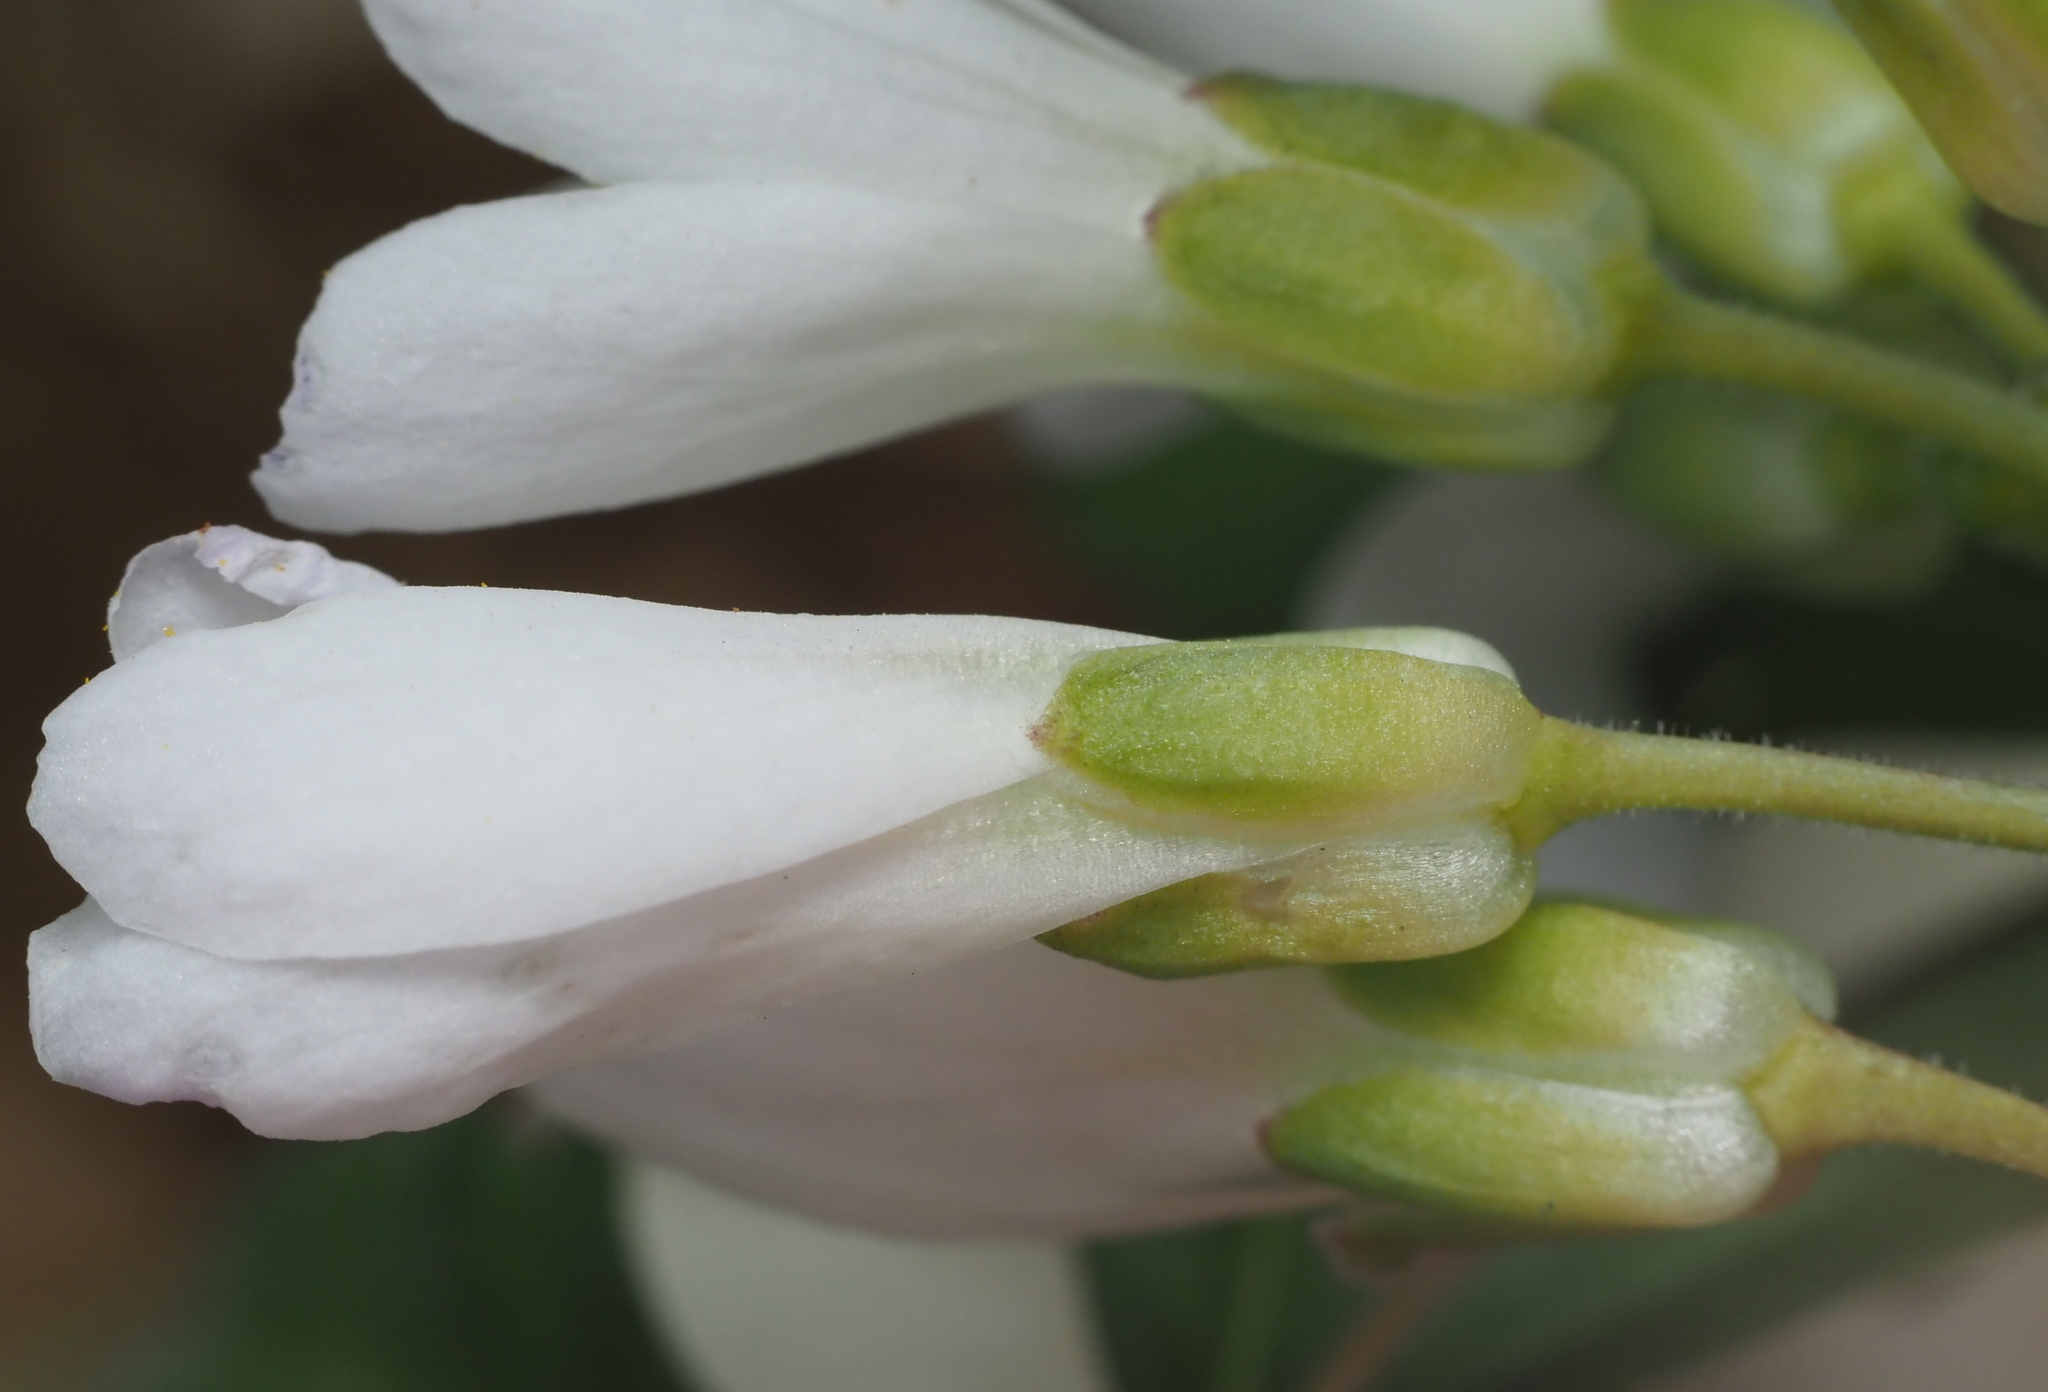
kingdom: Plantae
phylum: Tracheophyta
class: Magnoliopsida
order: Brassicales
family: Brassicaceae
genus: Cardamine
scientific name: Cardamine concatenata
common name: Cut-leaf toothcup
